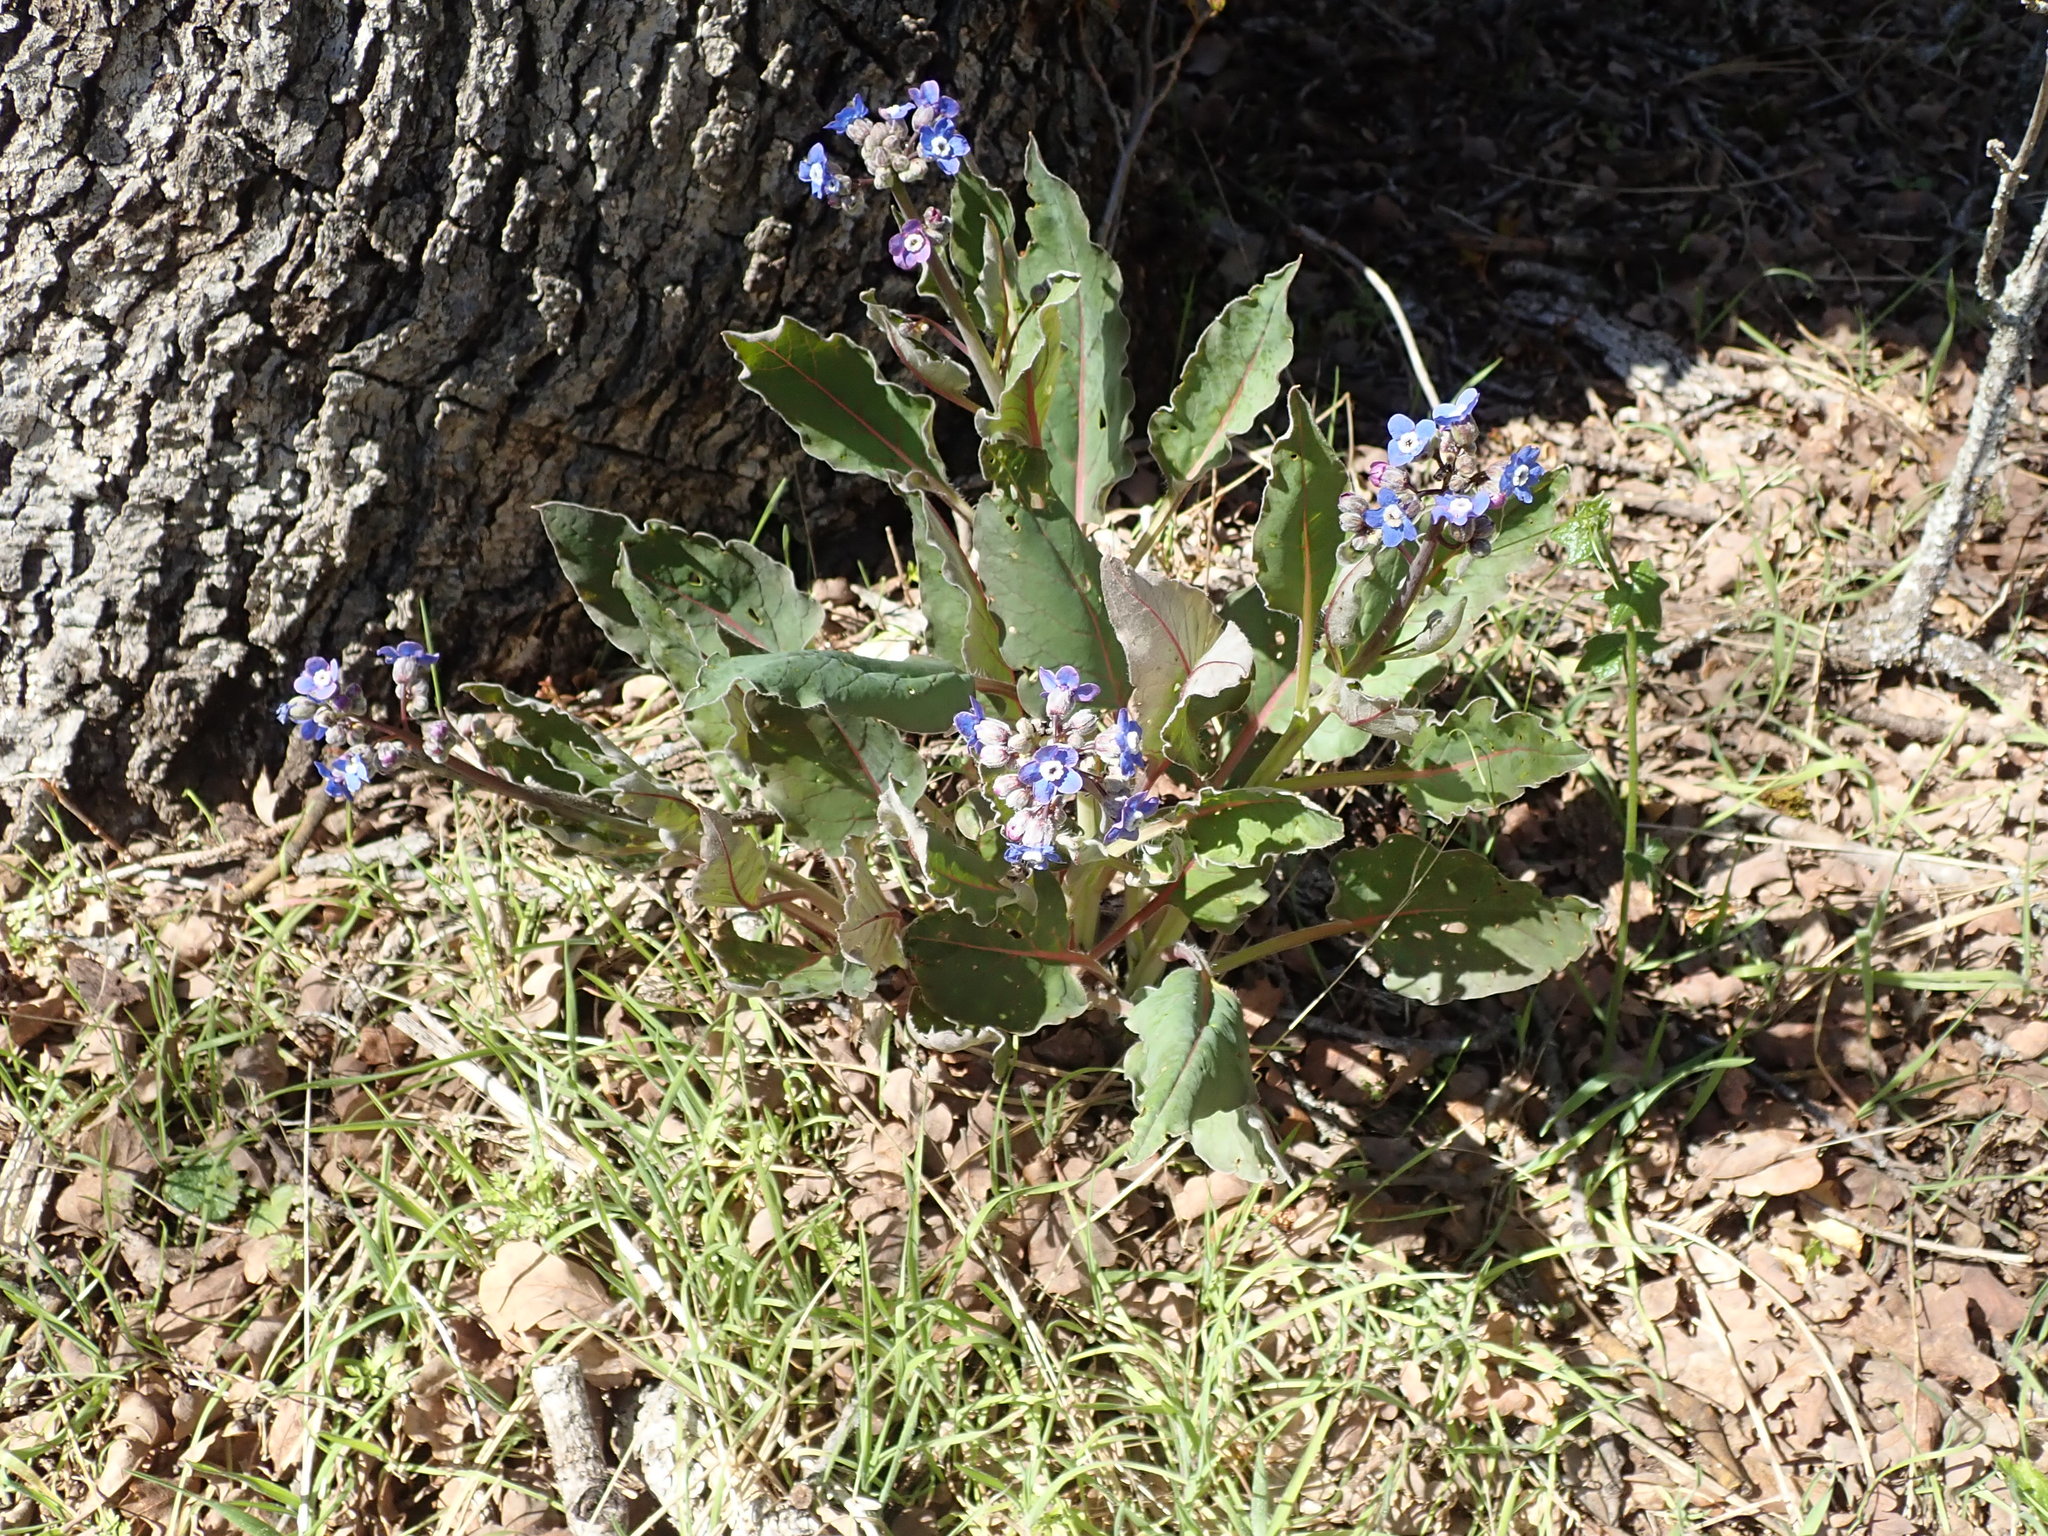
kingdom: Plantae
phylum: Tracheophyta
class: Magnoliopsida
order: Boraginales
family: Boraginaceae
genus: Adelinia
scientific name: Adelinia grande
